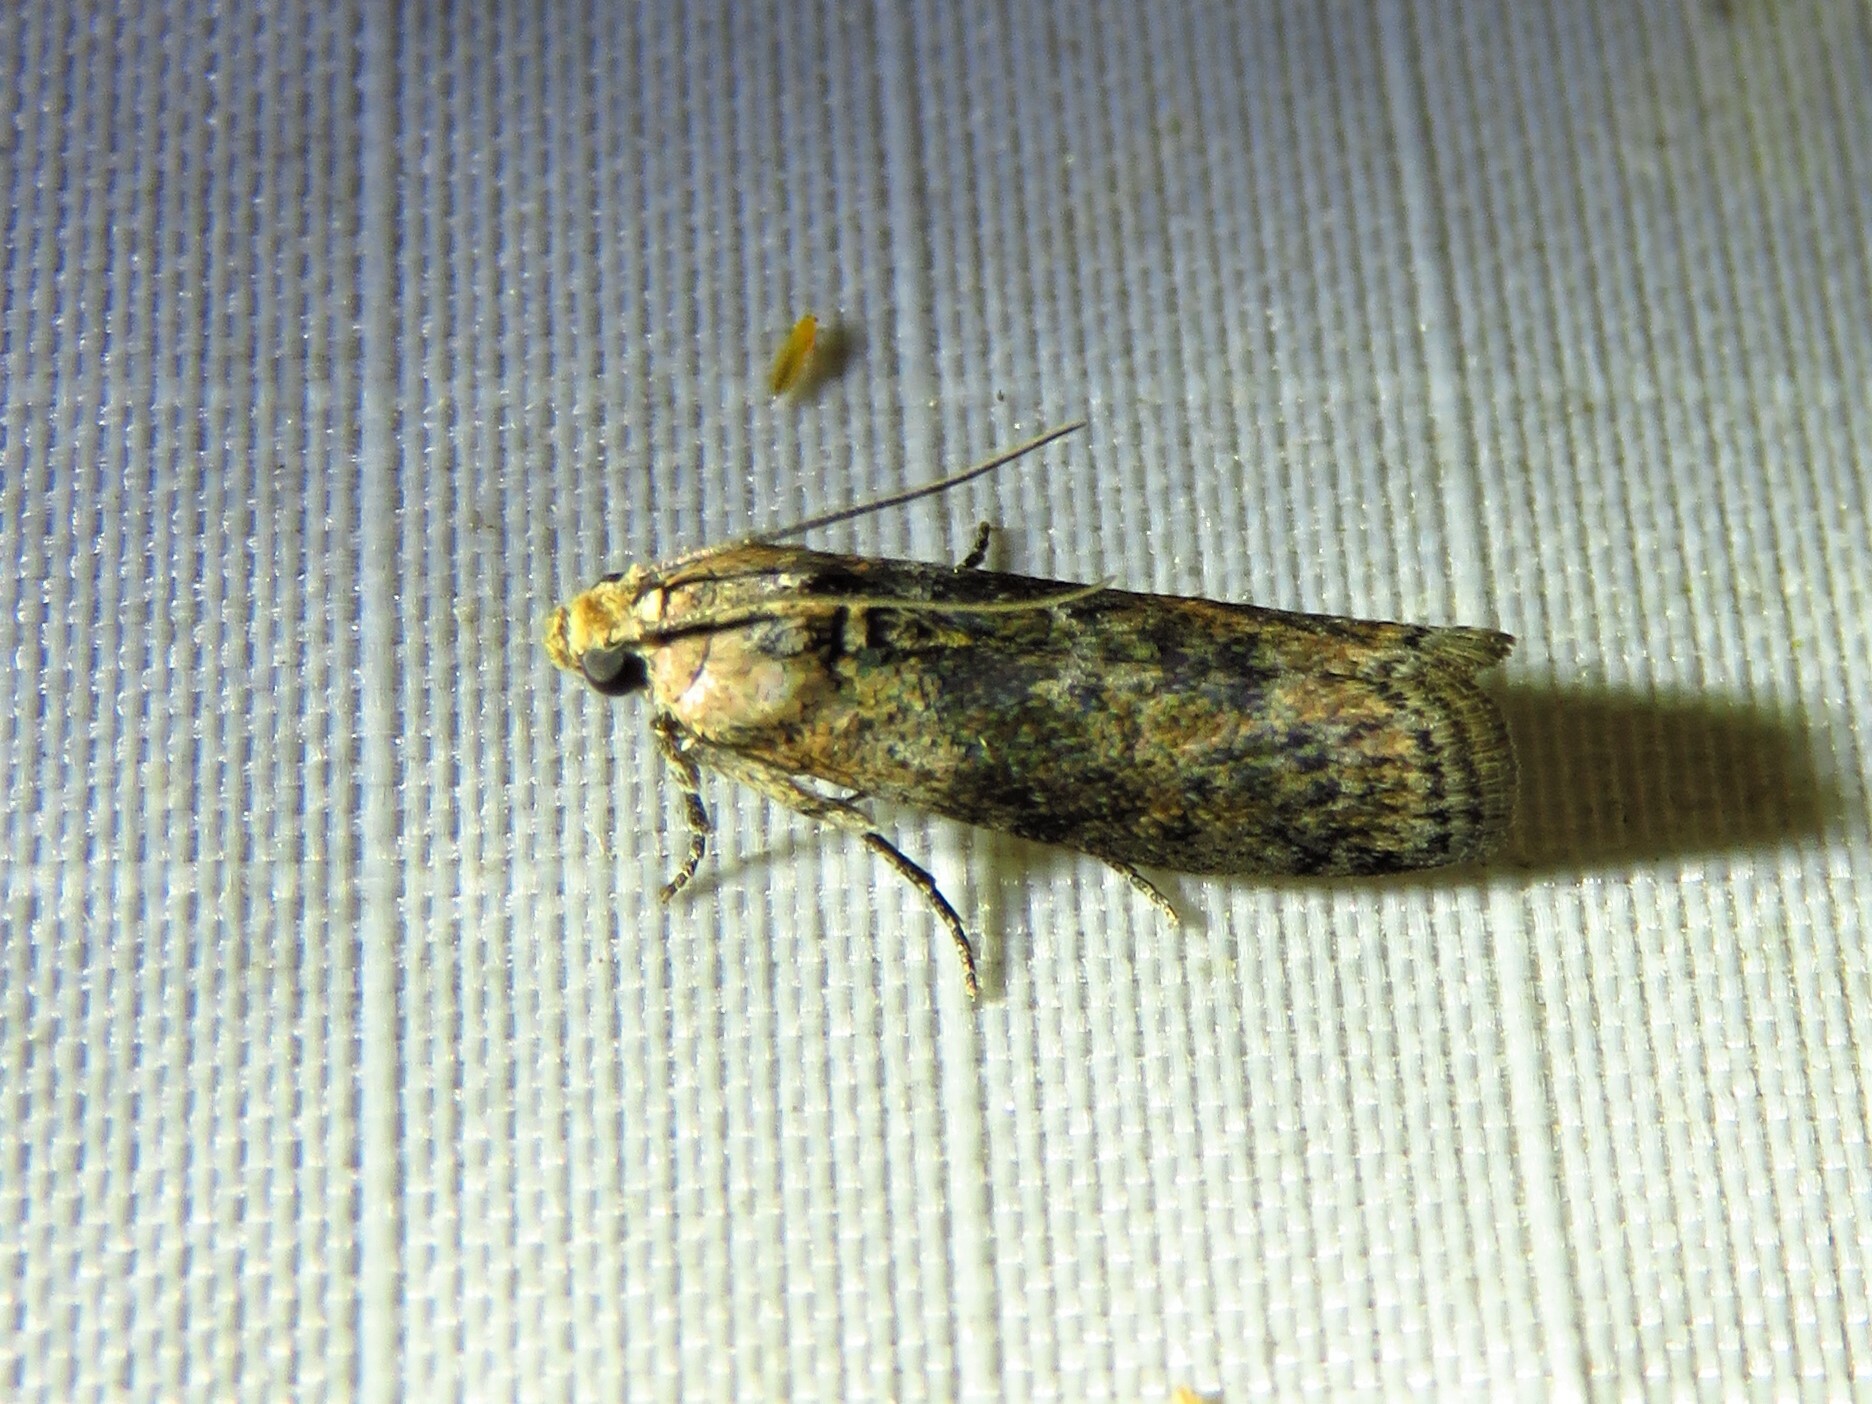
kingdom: Animalia
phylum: Arthropoda
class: Insecta
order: Lepidoptera
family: Pyralidae
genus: Sciota
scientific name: Sciota celtidella
